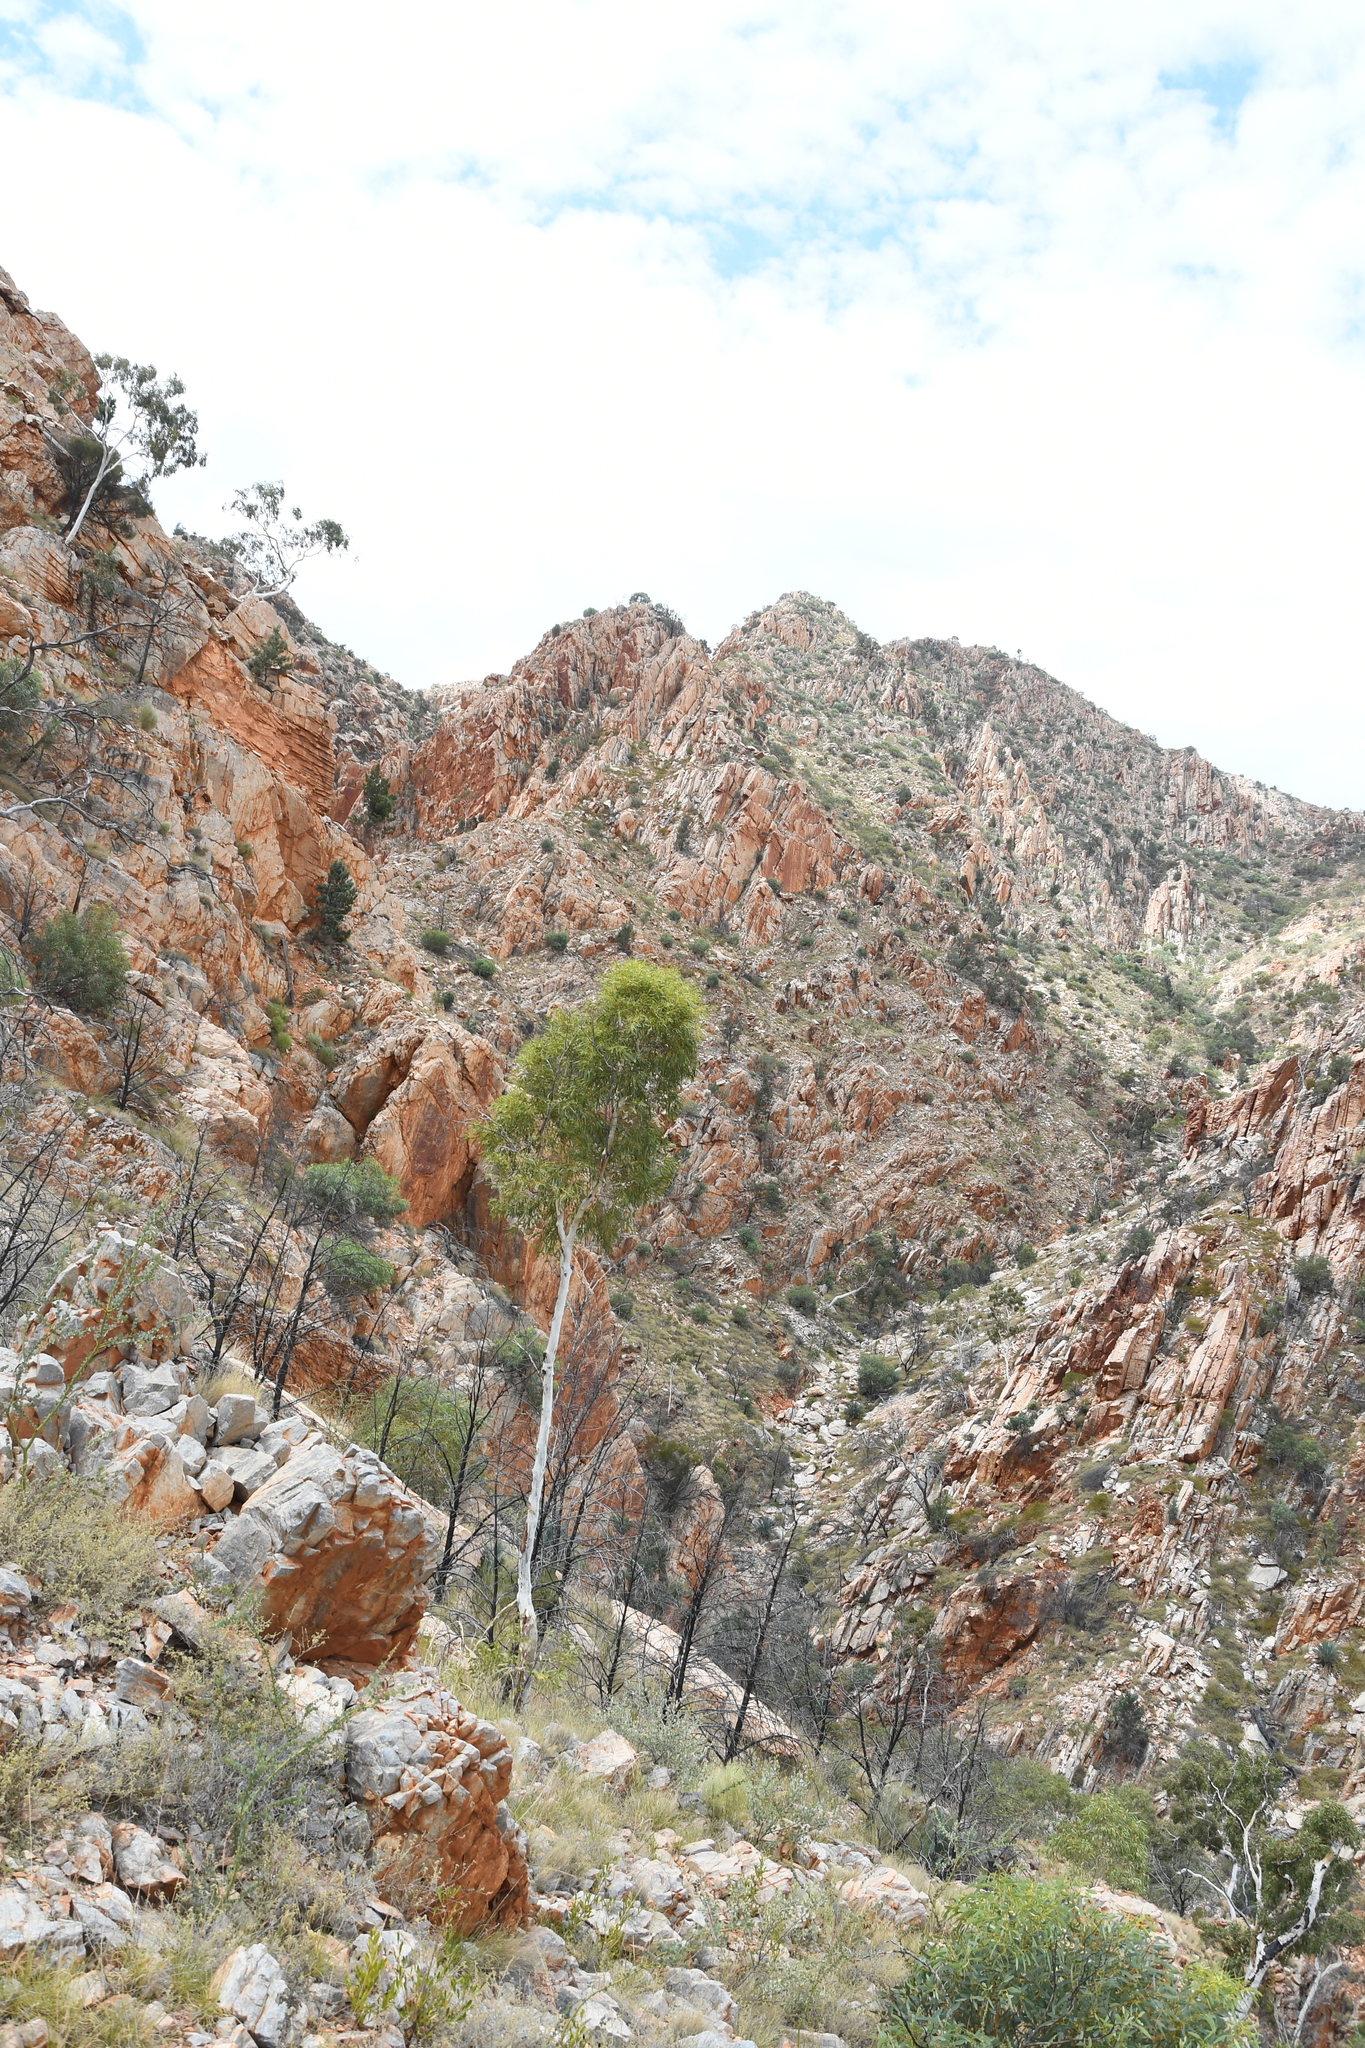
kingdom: Plantae
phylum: Tracheophyta
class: Magnoliopsida
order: Myrtales
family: Myrtaceae
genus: Corymbia
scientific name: Corymbia aparrerinja
